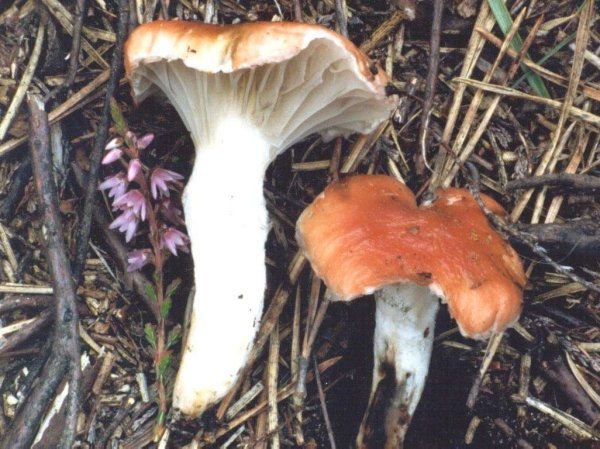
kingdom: Fungi
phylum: Basidiomycota
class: Agaricomycetes
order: Boletales
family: Gomphidiaceae
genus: Gomphidius
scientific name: Gomphidius roseus
